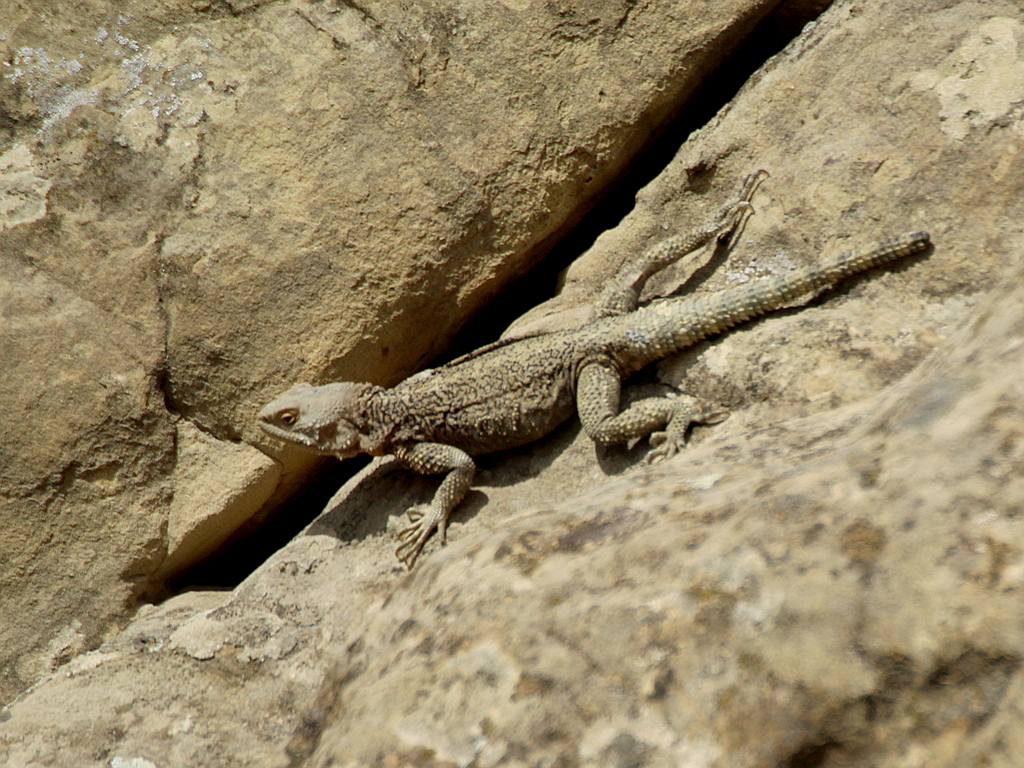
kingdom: Animalia
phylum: Chordata
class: Squamata
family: Agamidae
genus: Paralaudakia
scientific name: Paralaudakia caucasia
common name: Caucasian agama
